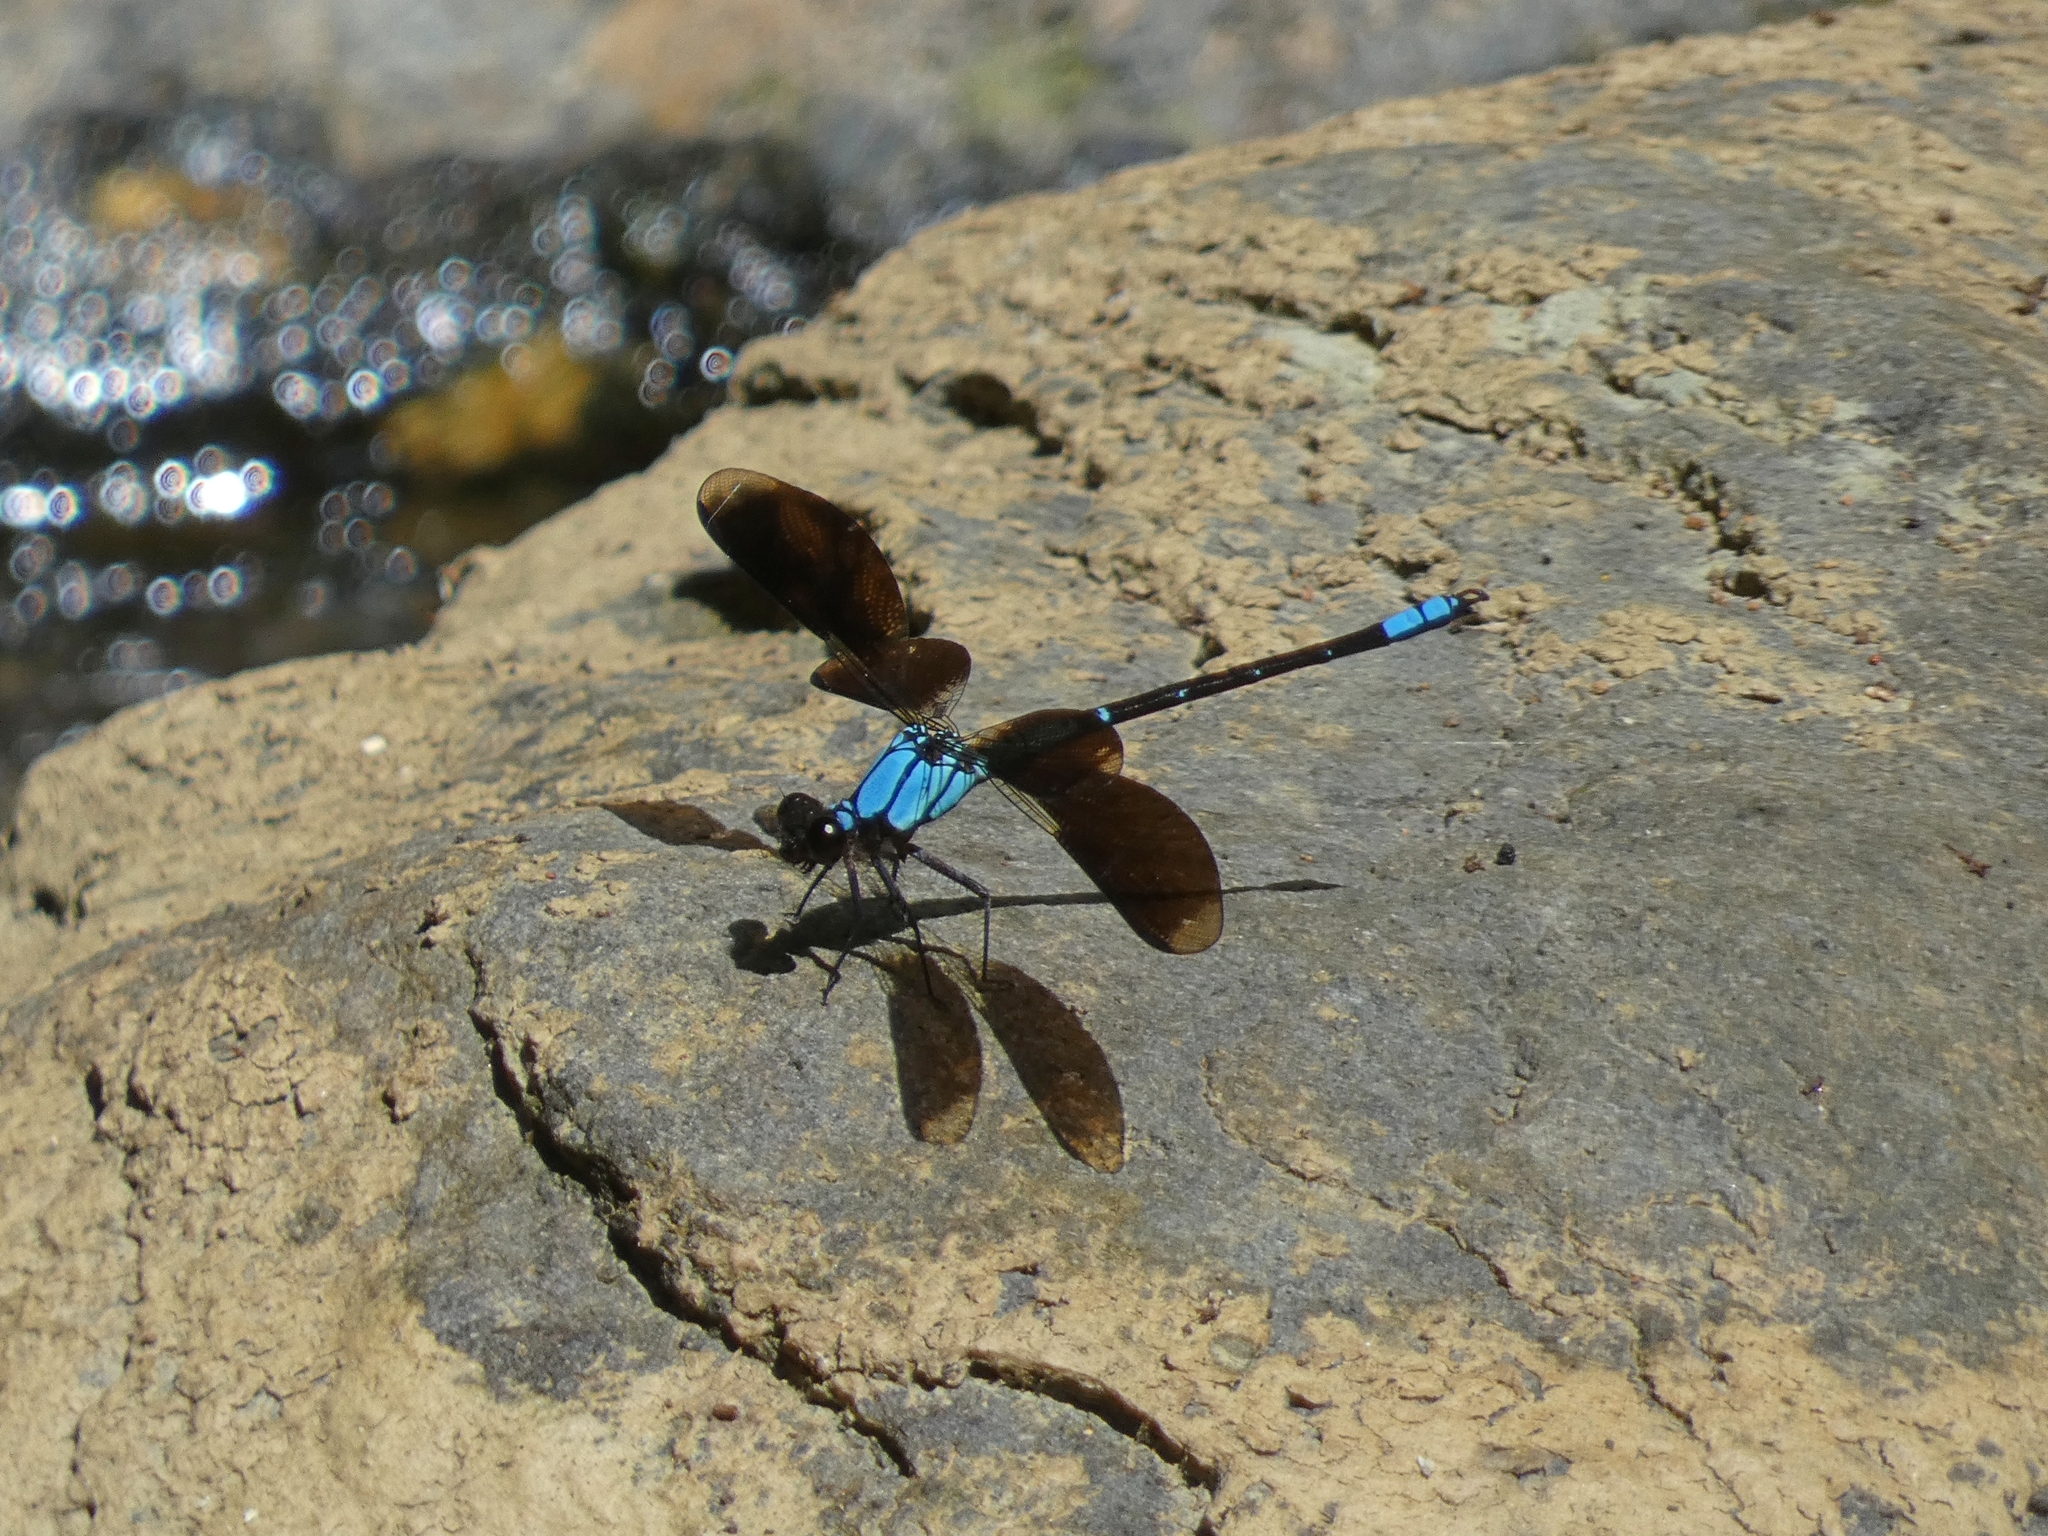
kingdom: Animalia
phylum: Arthropoda
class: Insecta
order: Odonata
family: Lestoideidae
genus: Diphlebia
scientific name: Diphlebia euphoeoides
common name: Tropical rockmaster
